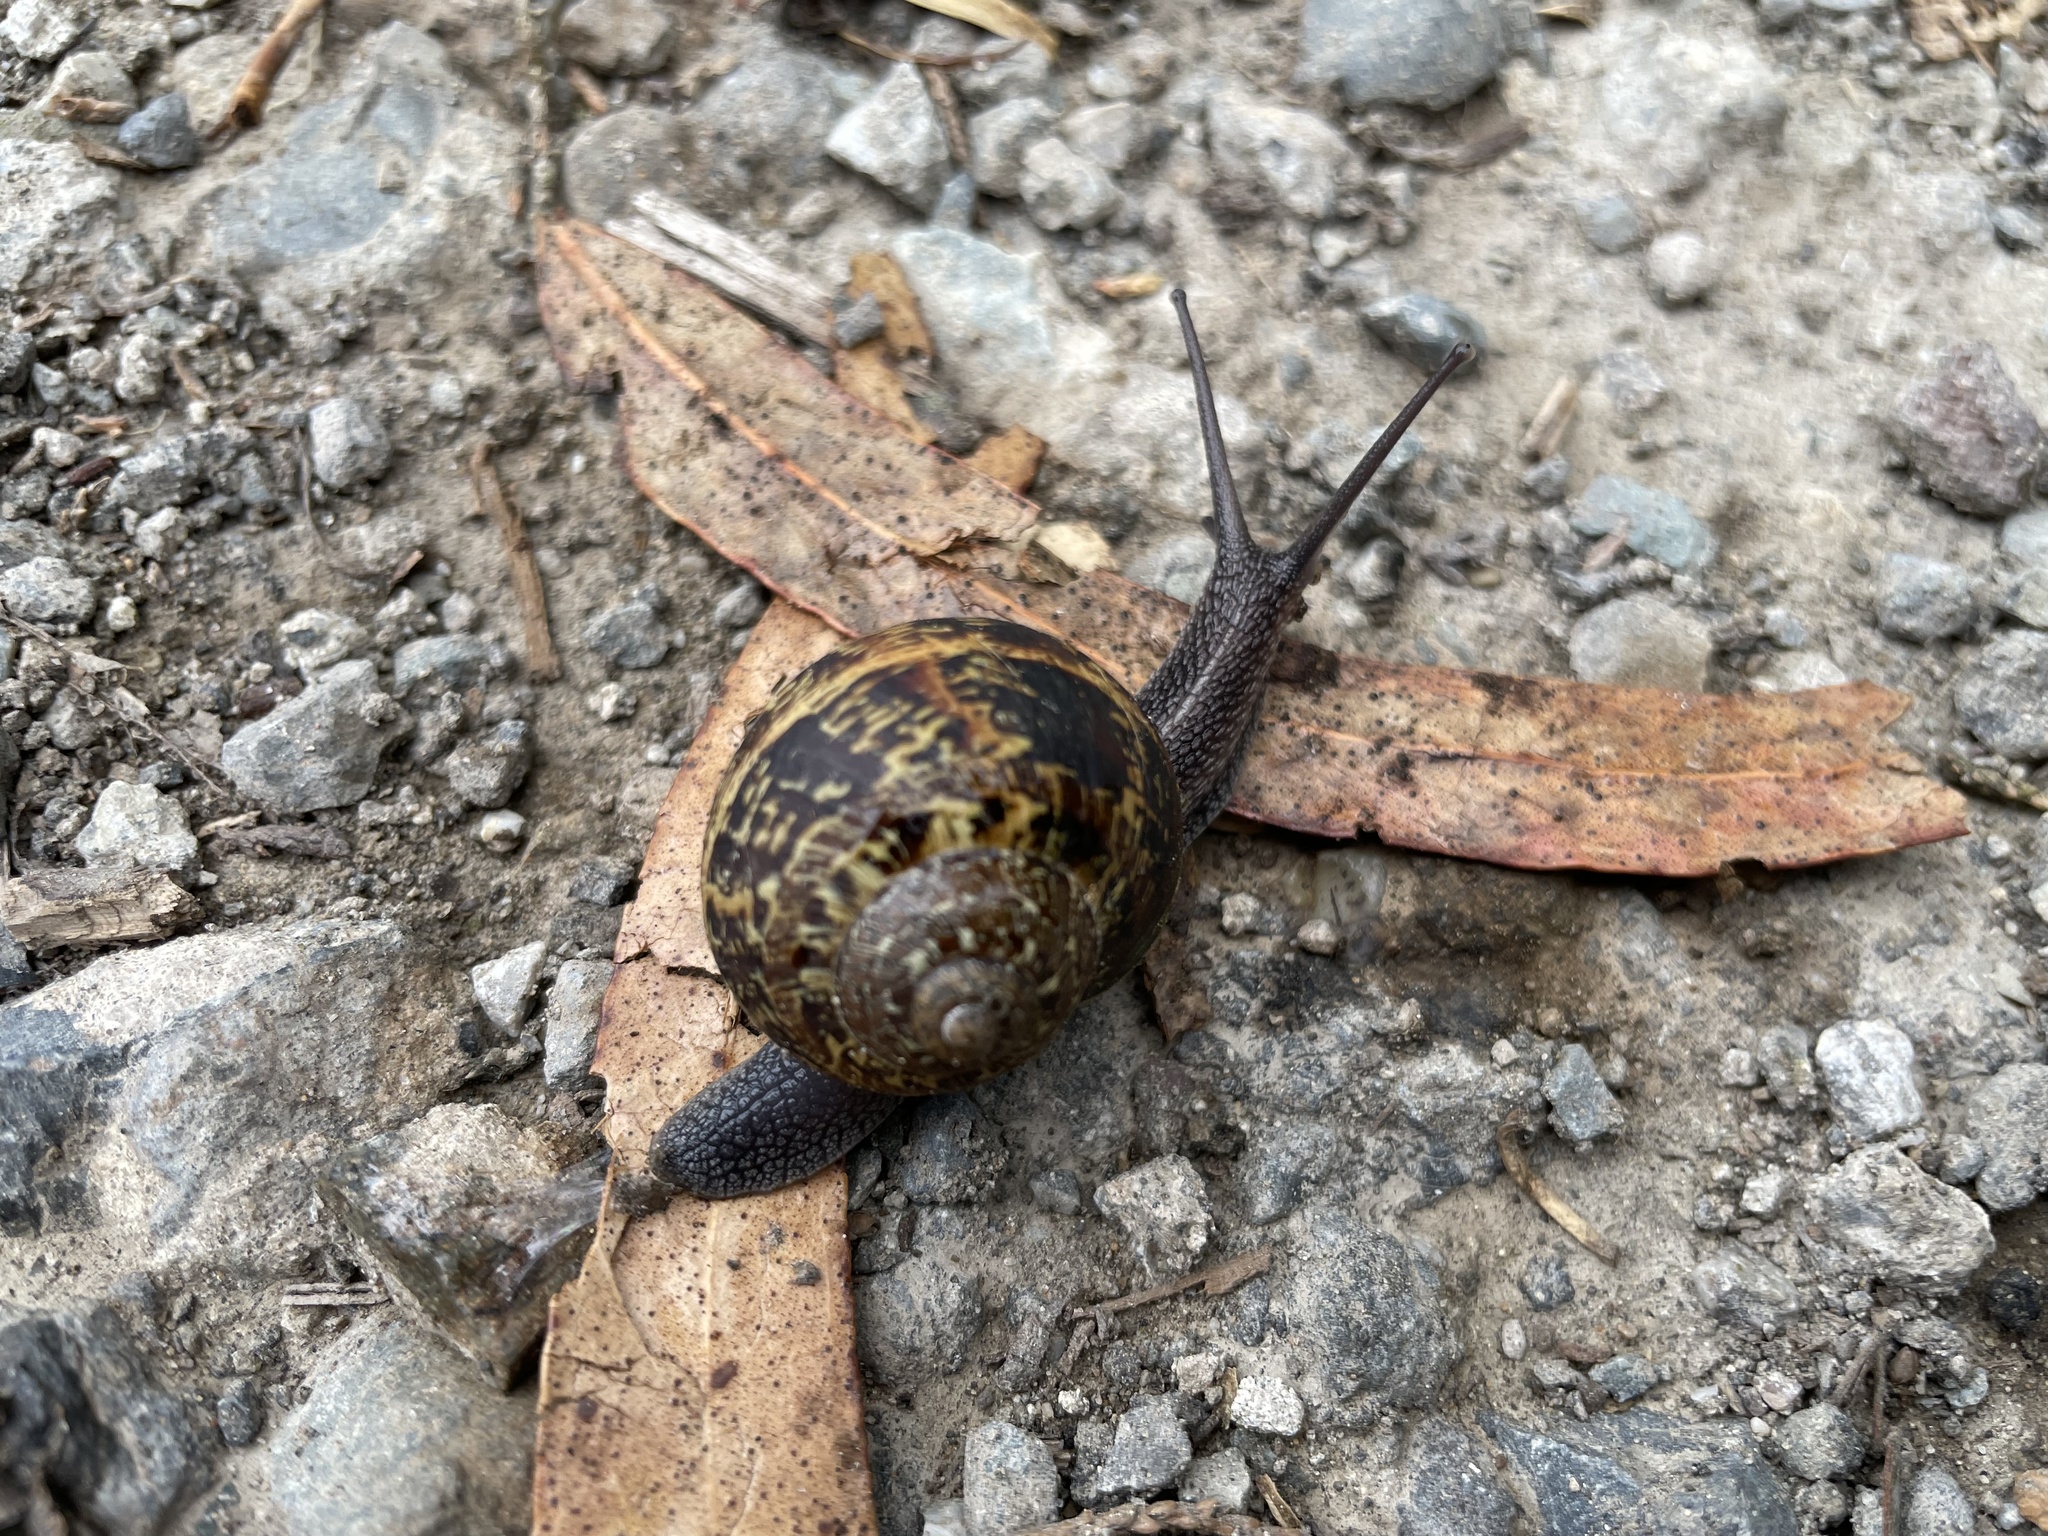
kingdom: Animalia
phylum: Mollusca
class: Gastropoda
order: Stylommatophora
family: Helicidae
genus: Cornu
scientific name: Cornu aspersum
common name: Brown garden snail
